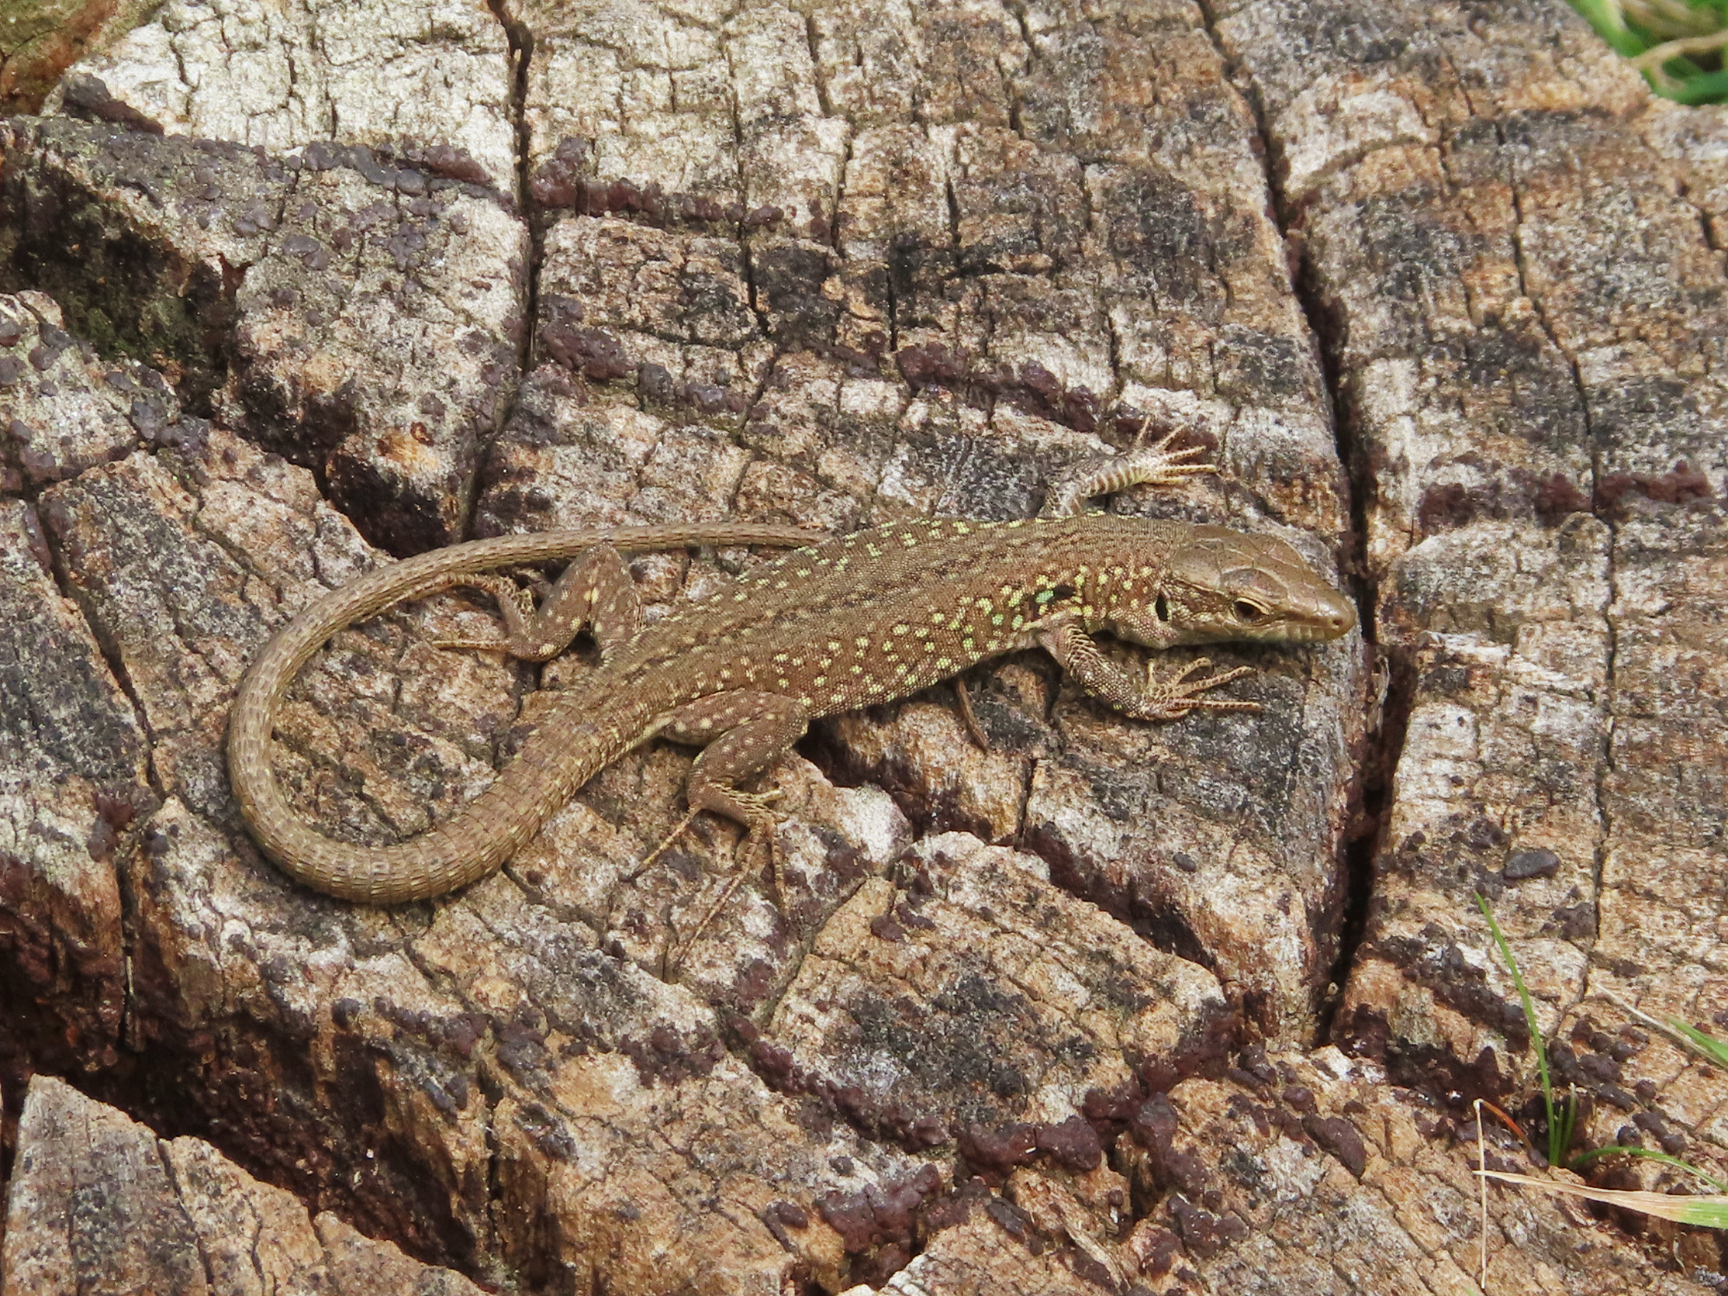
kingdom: Animalia
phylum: Chordata
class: Squamata
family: Lacertidae
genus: Podarcis
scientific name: Podarcis siculus
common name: Italian wall lizard
